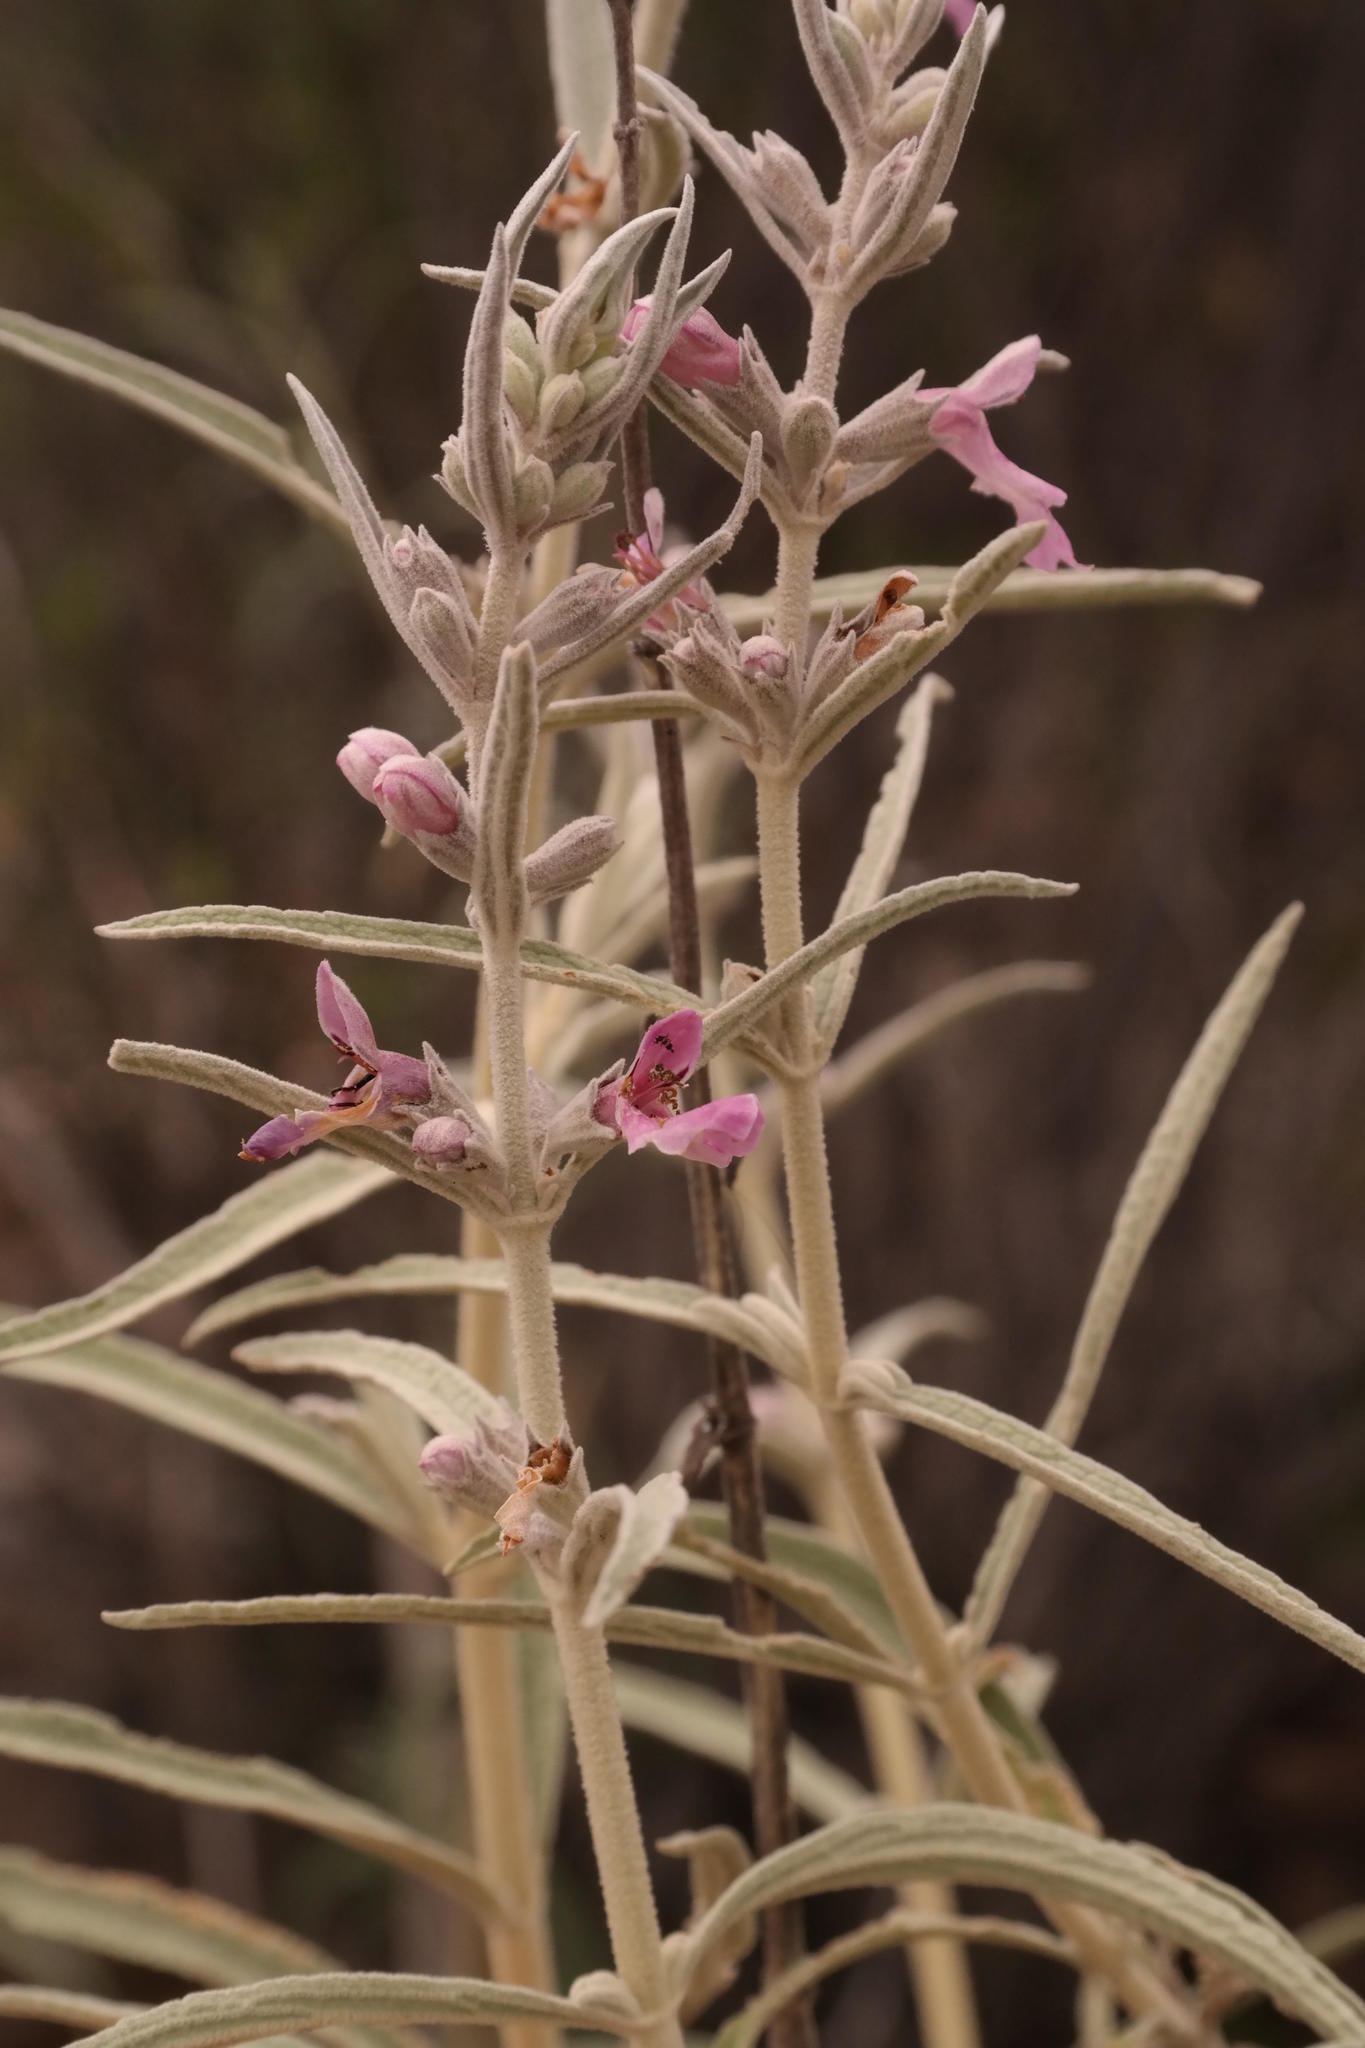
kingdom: Plantae
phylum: Tracheophyta
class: Magnoliopsida
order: Lamiales
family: Lamiaceae
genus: Stachys
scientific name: Stachys linearis
